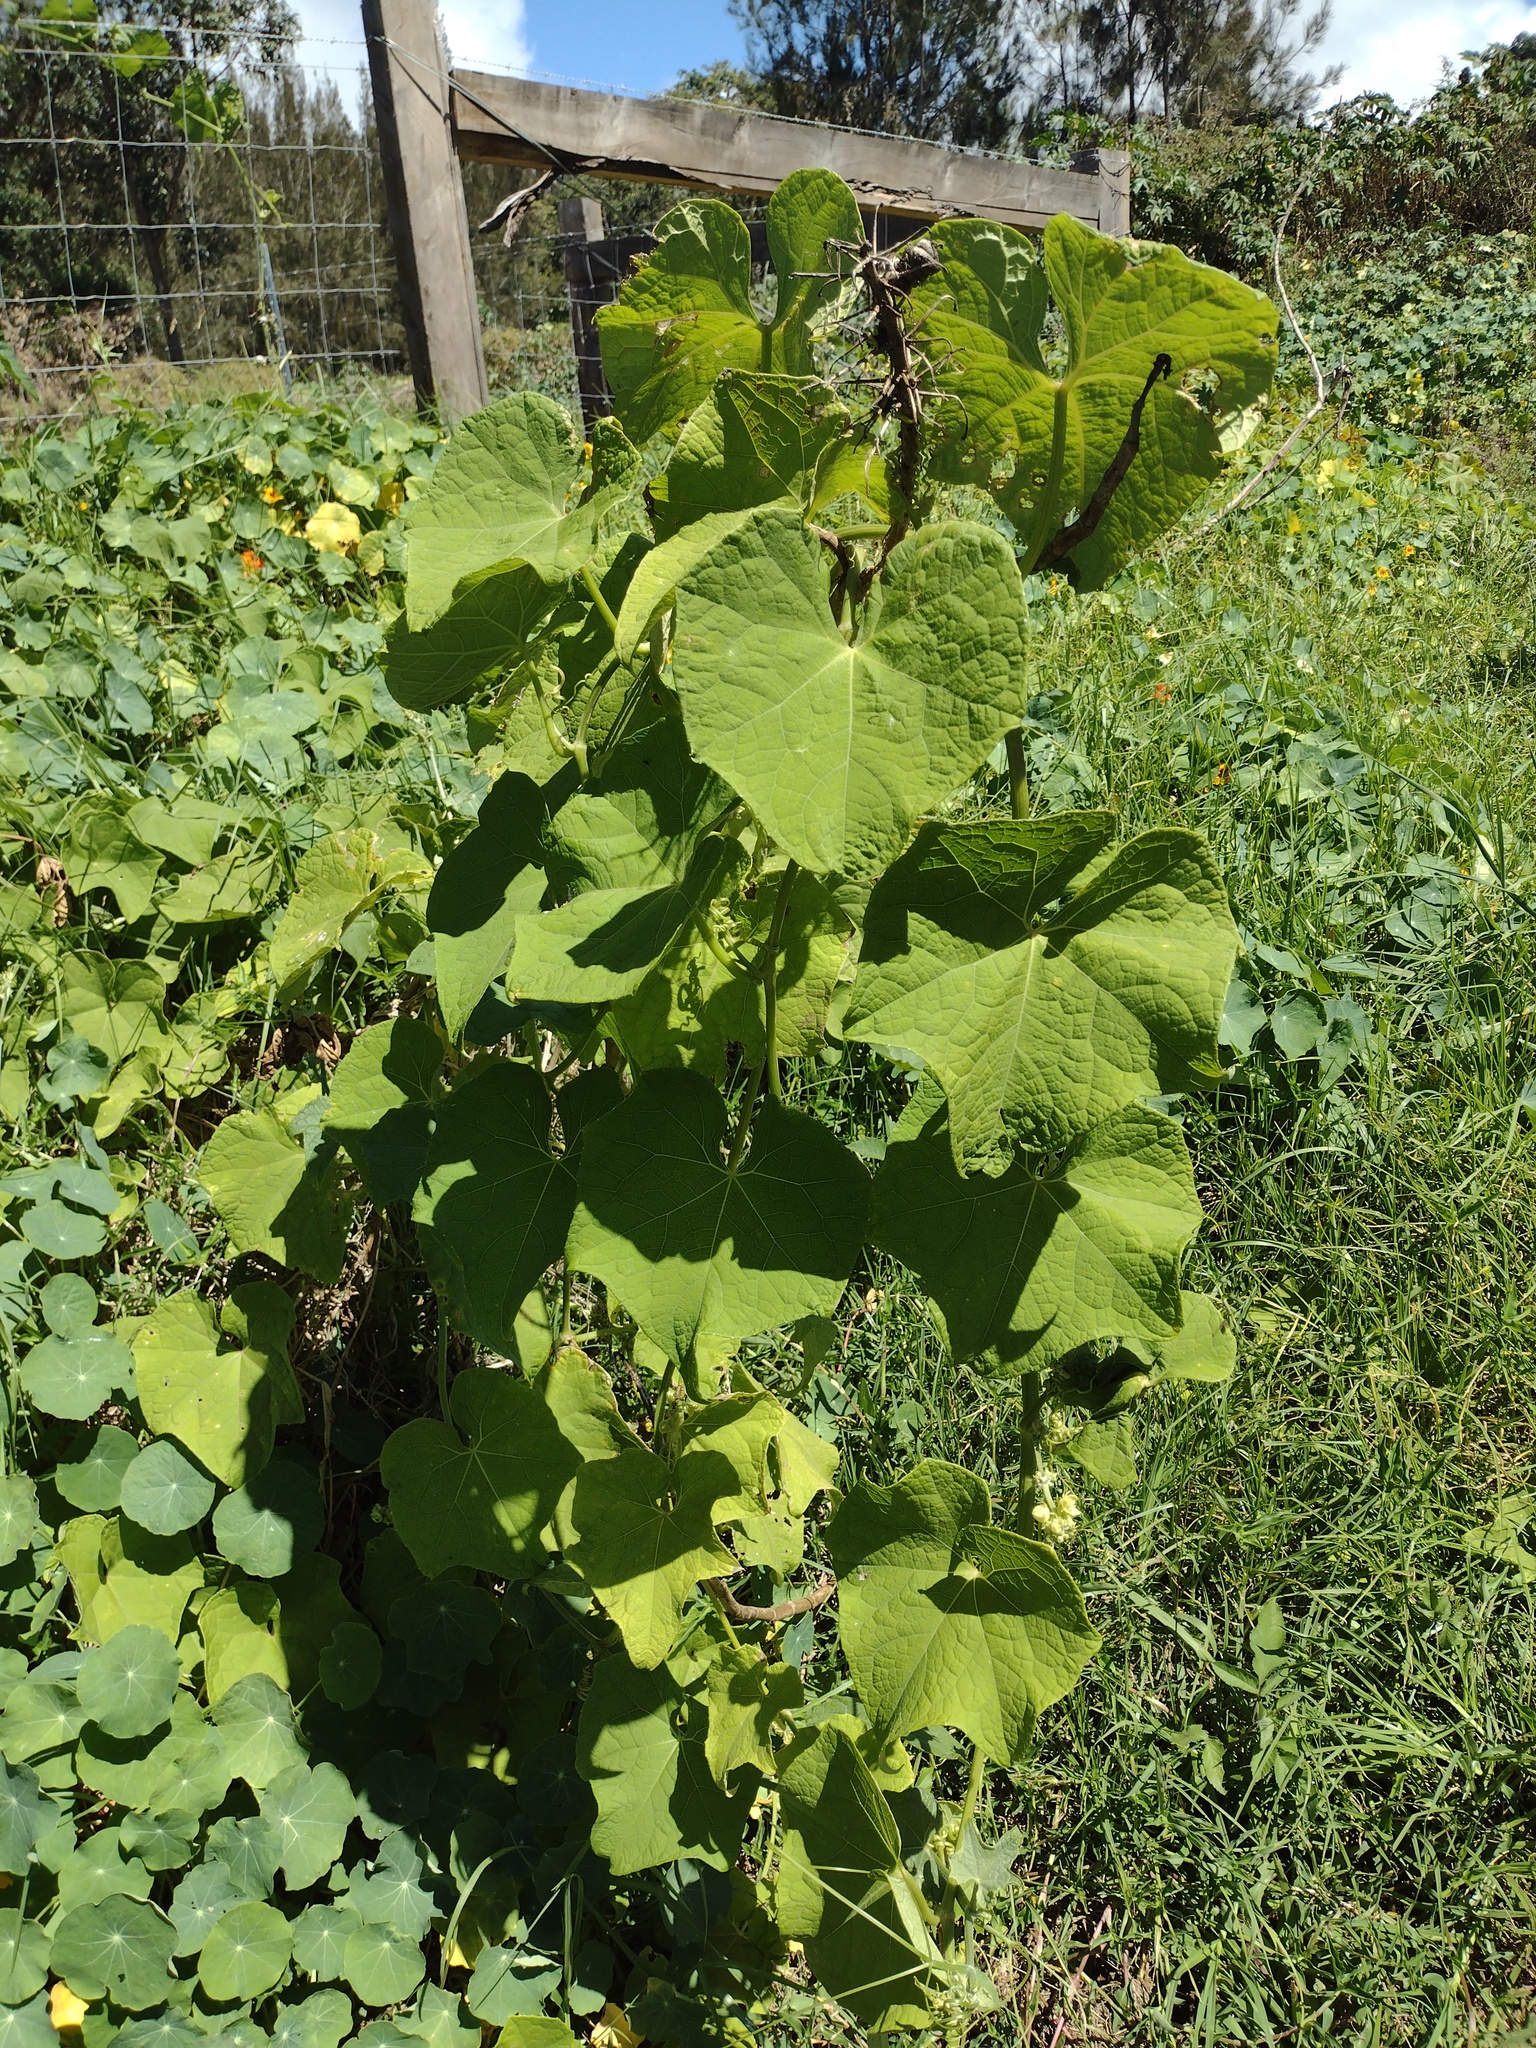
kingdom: Plantae
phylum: Tracheophyta
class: Magnoliopsida
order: Cucurbitales
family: Cucurbitaceae
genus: Sechium
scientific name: Sechium edule
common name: Chayote
